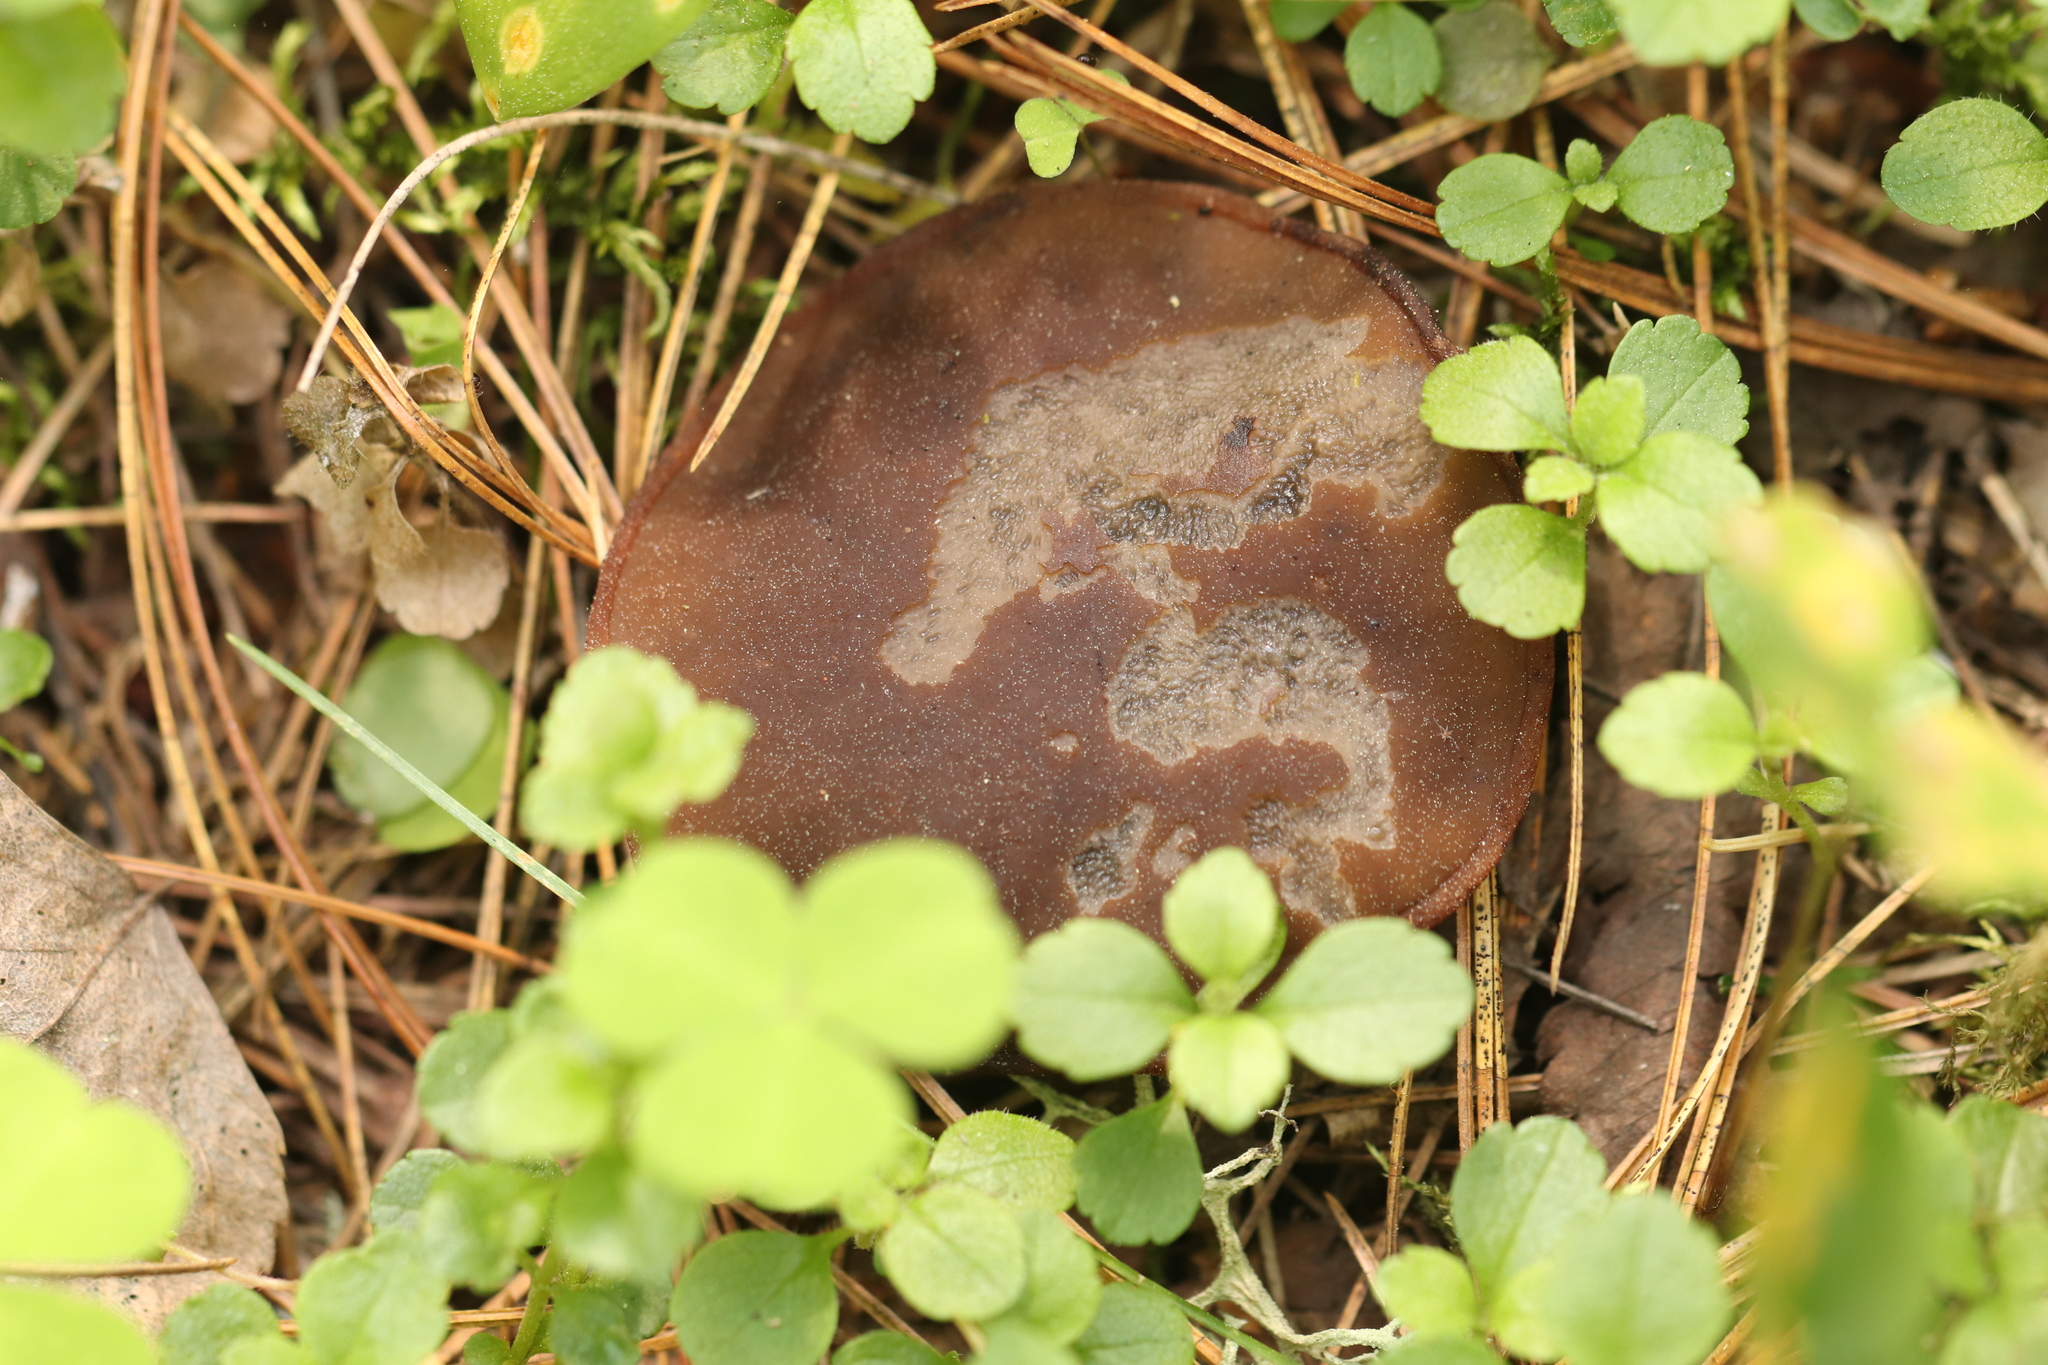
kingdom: Fungi
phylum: Ascomycota
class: Pezizomycetes
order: Pezizales
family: Sarcosomataceae
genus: Sarcosoma
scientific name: Sarcosoma globosum
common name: Charred-pancake cup
